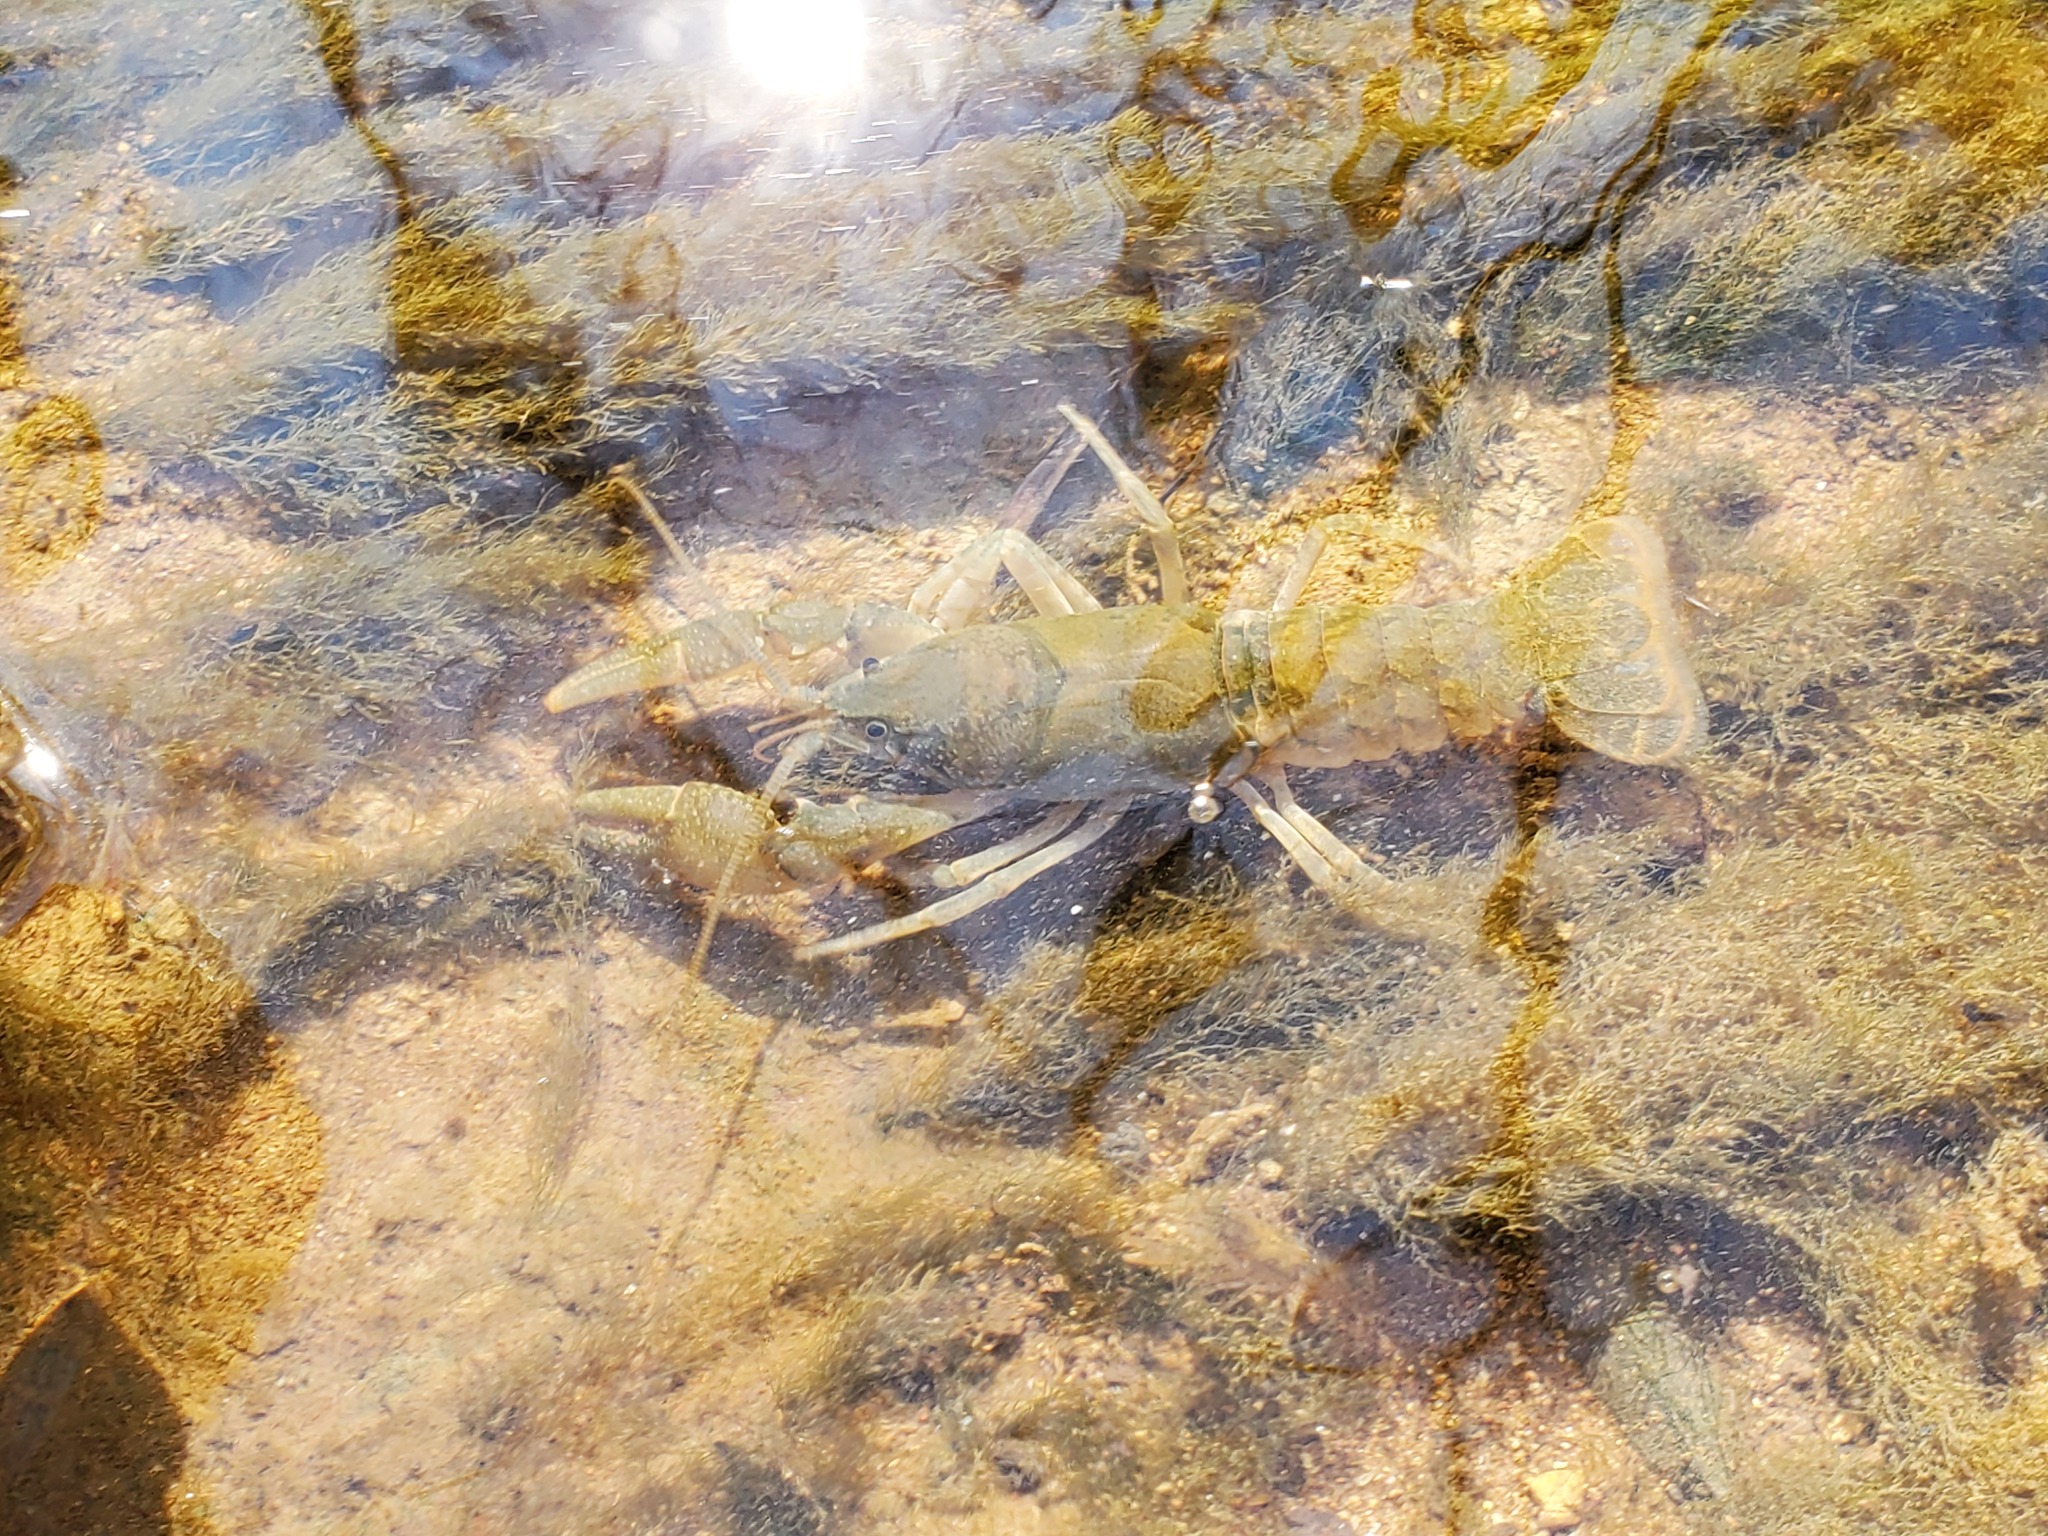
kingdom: Animalia
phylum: Arthropoda
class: Malacostraca
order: Decapoda
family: Cambaridae
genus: Cambarus
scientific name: Cambarus striatus
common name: Ambiguous crayfish
